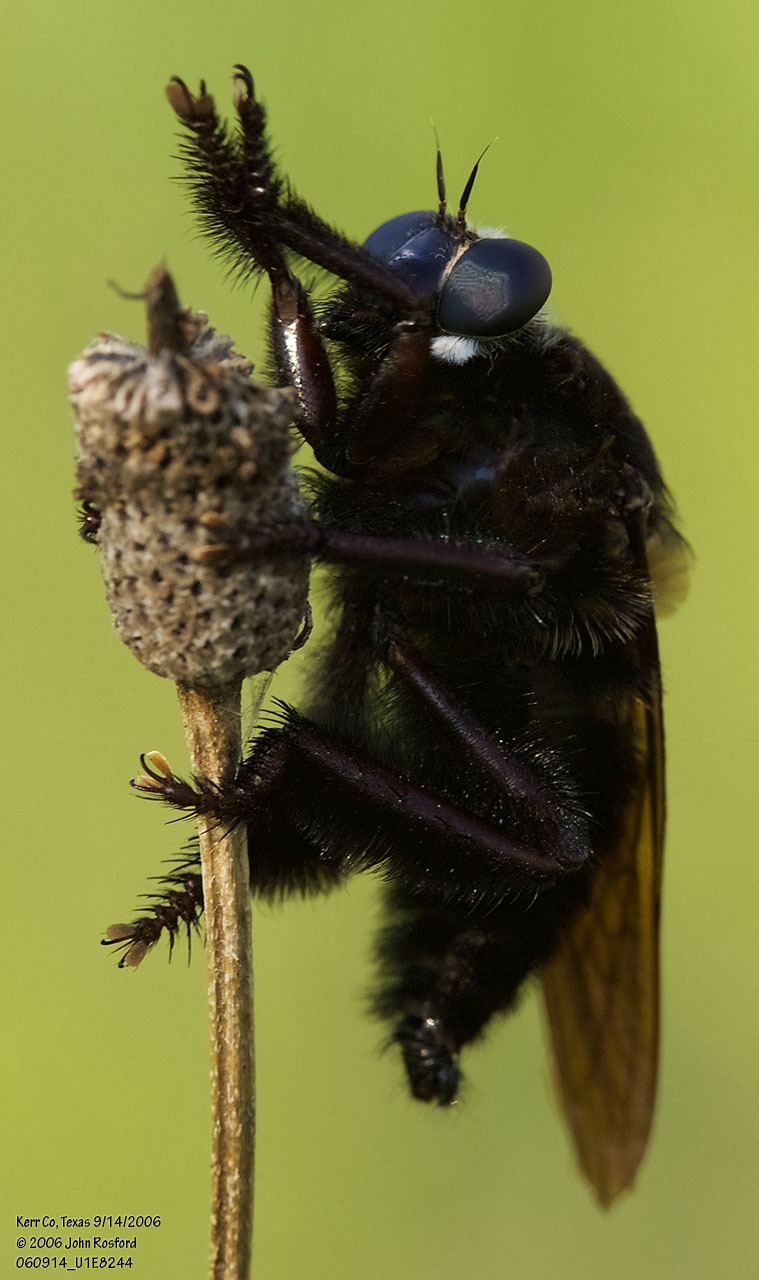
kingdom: Animalia
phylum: Arthropoda
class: Insecta
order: Diptera
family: Asilidae
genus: Mallophora
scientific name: Mallophora leschenaultii
